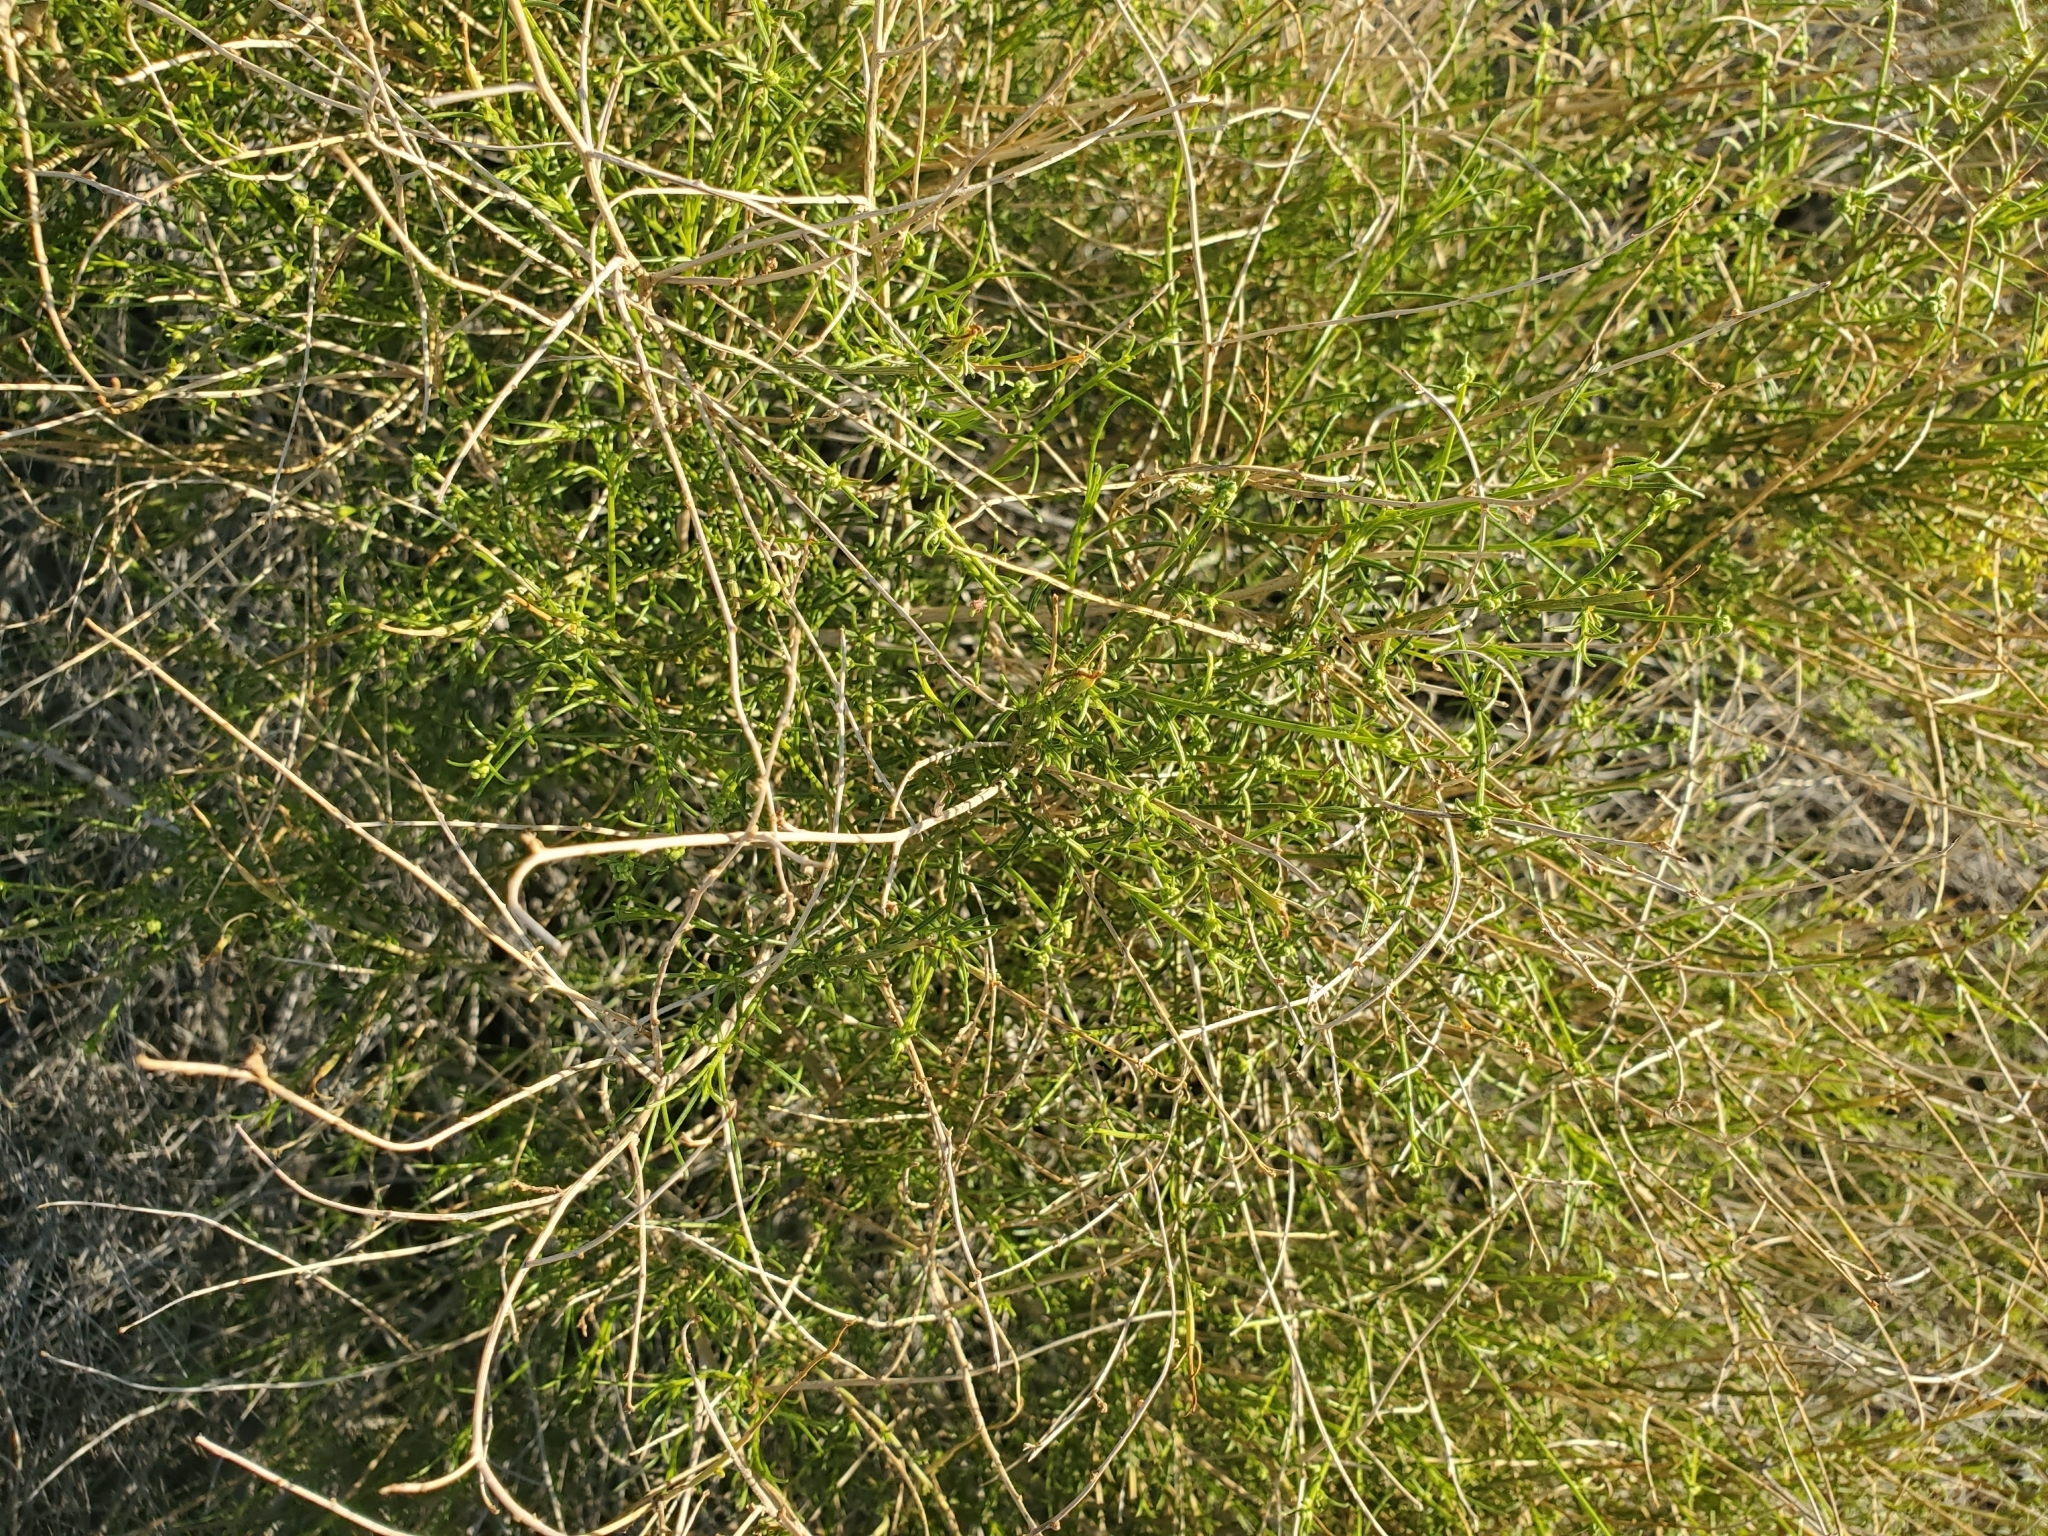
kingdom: Plantae
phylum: Tracheophyta
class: Magnoliopsida
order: Asterales
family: Asteraceae
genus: Ambrosia
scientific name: Ambrosia salsola
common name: Burrobrush
